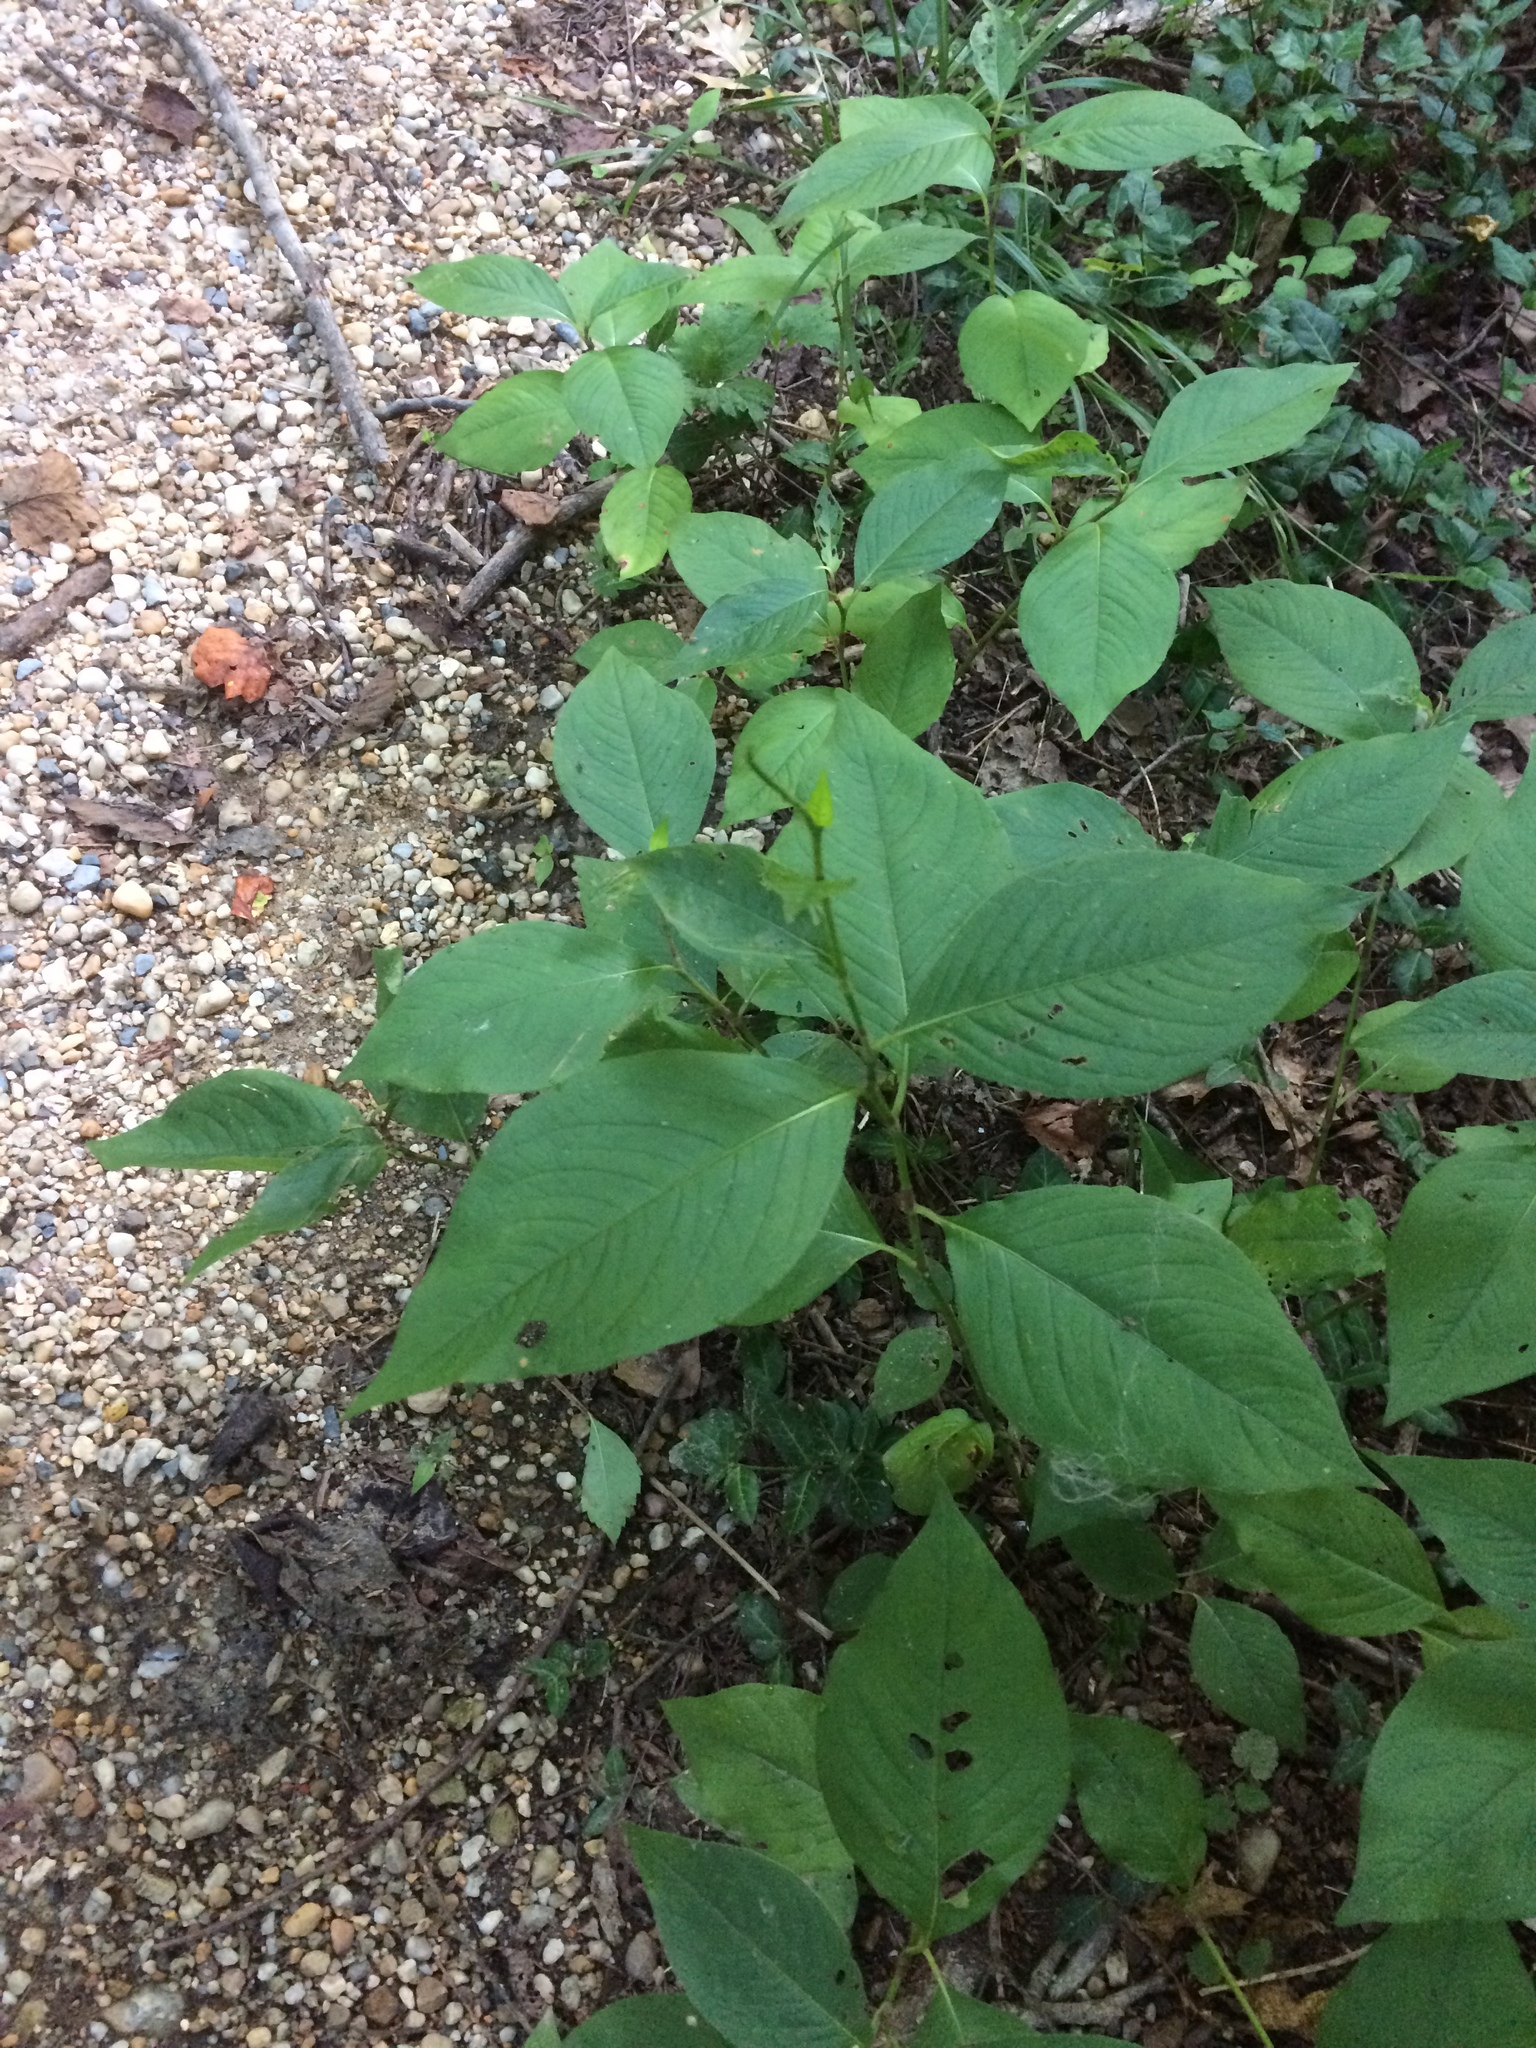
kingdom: Plantae
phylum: Tracheophyta
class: Magnoliopsida
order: Caryophyllales
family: Polygonaceae
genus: Persicaria
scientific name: Persicaria virginiana
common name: Jumpseed
